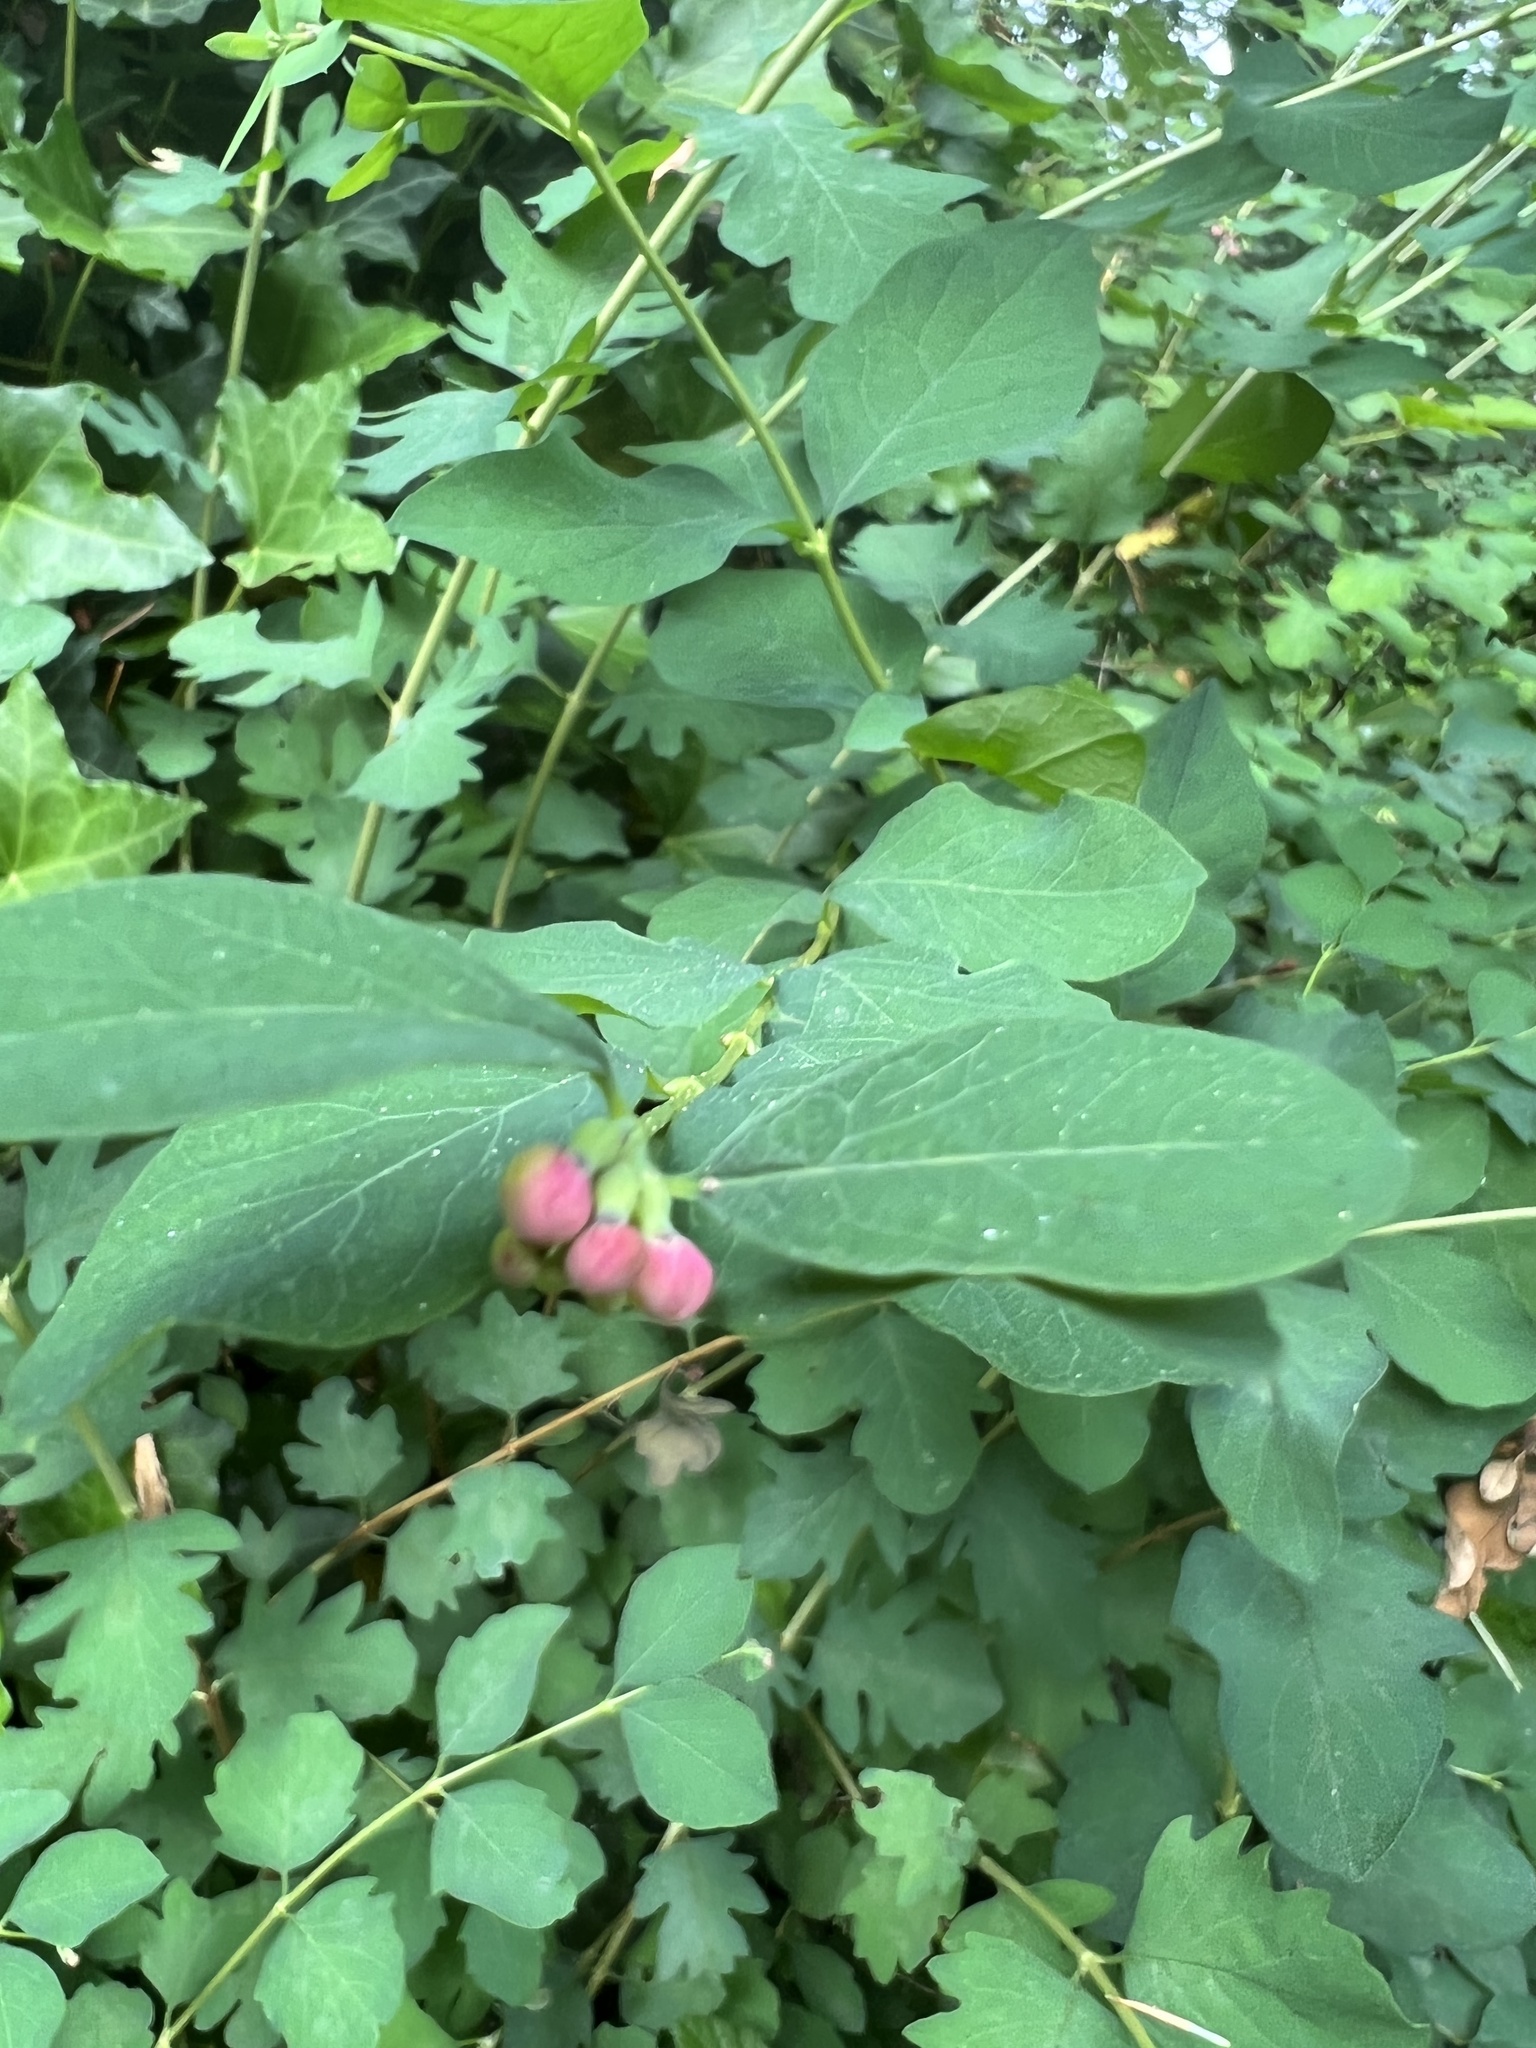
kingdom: Plantae
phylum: Tracheophyta
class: Magnoliopsida
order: Dipsacales
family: Caprifoliaceae
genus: Symphoricarpos
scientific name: Symphoricarpos albus
